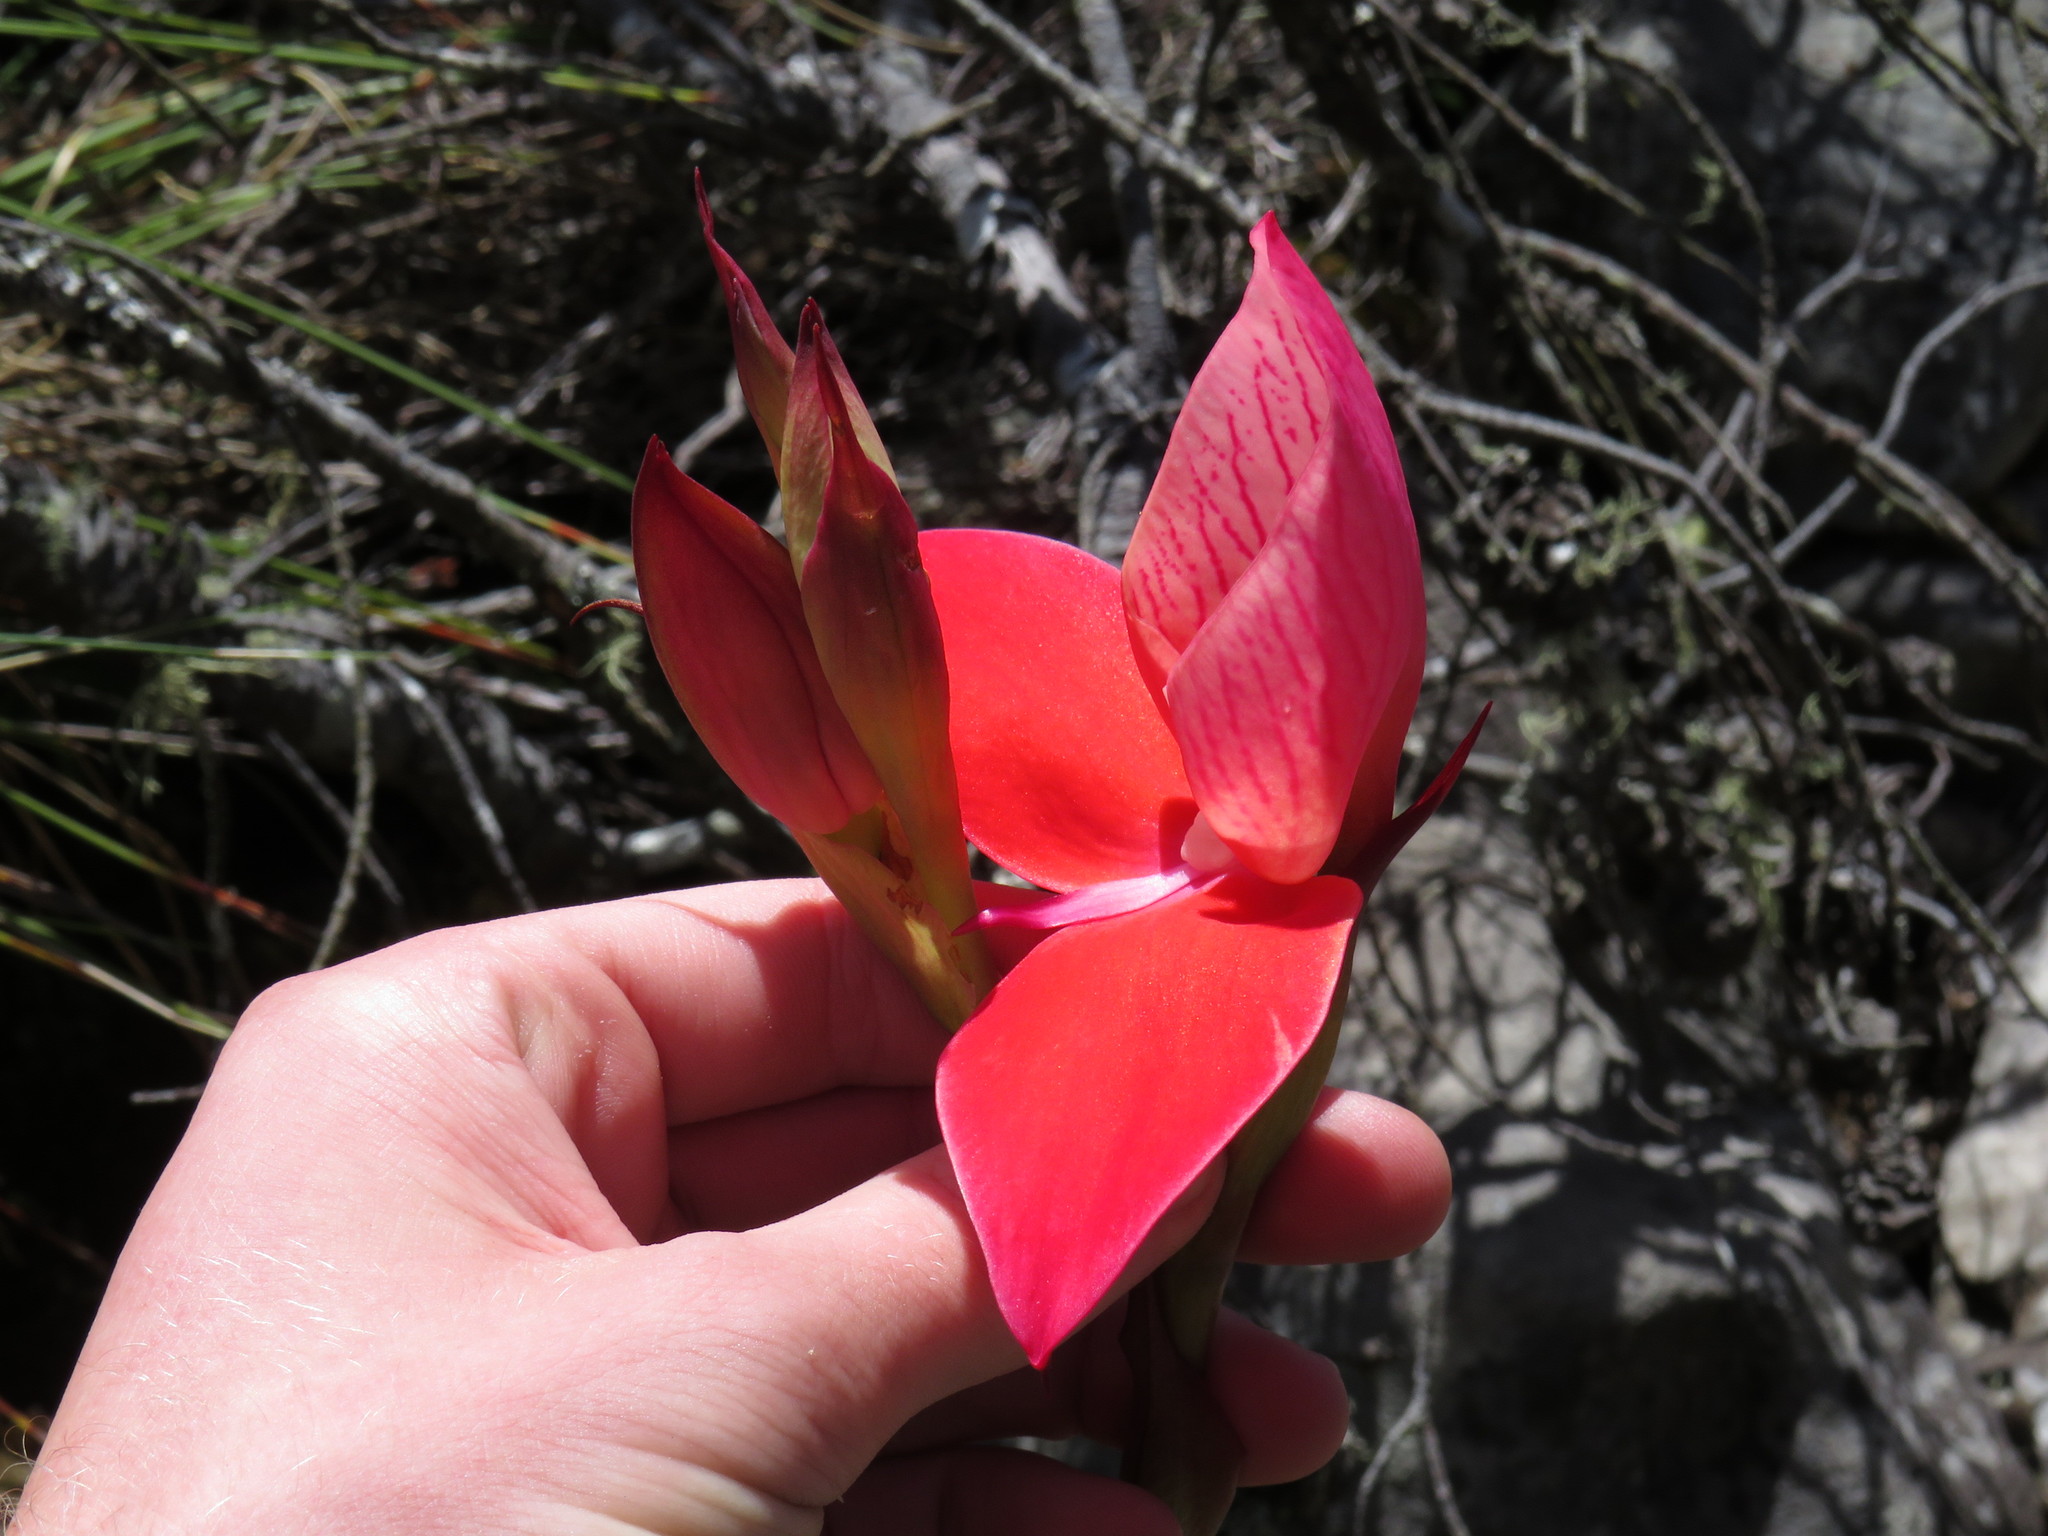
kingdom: Plantae
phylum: Tracheophyta
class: Liliopsida
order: Asparagales
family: Orchidaceae
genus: Disa
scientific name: Disa uniflora
